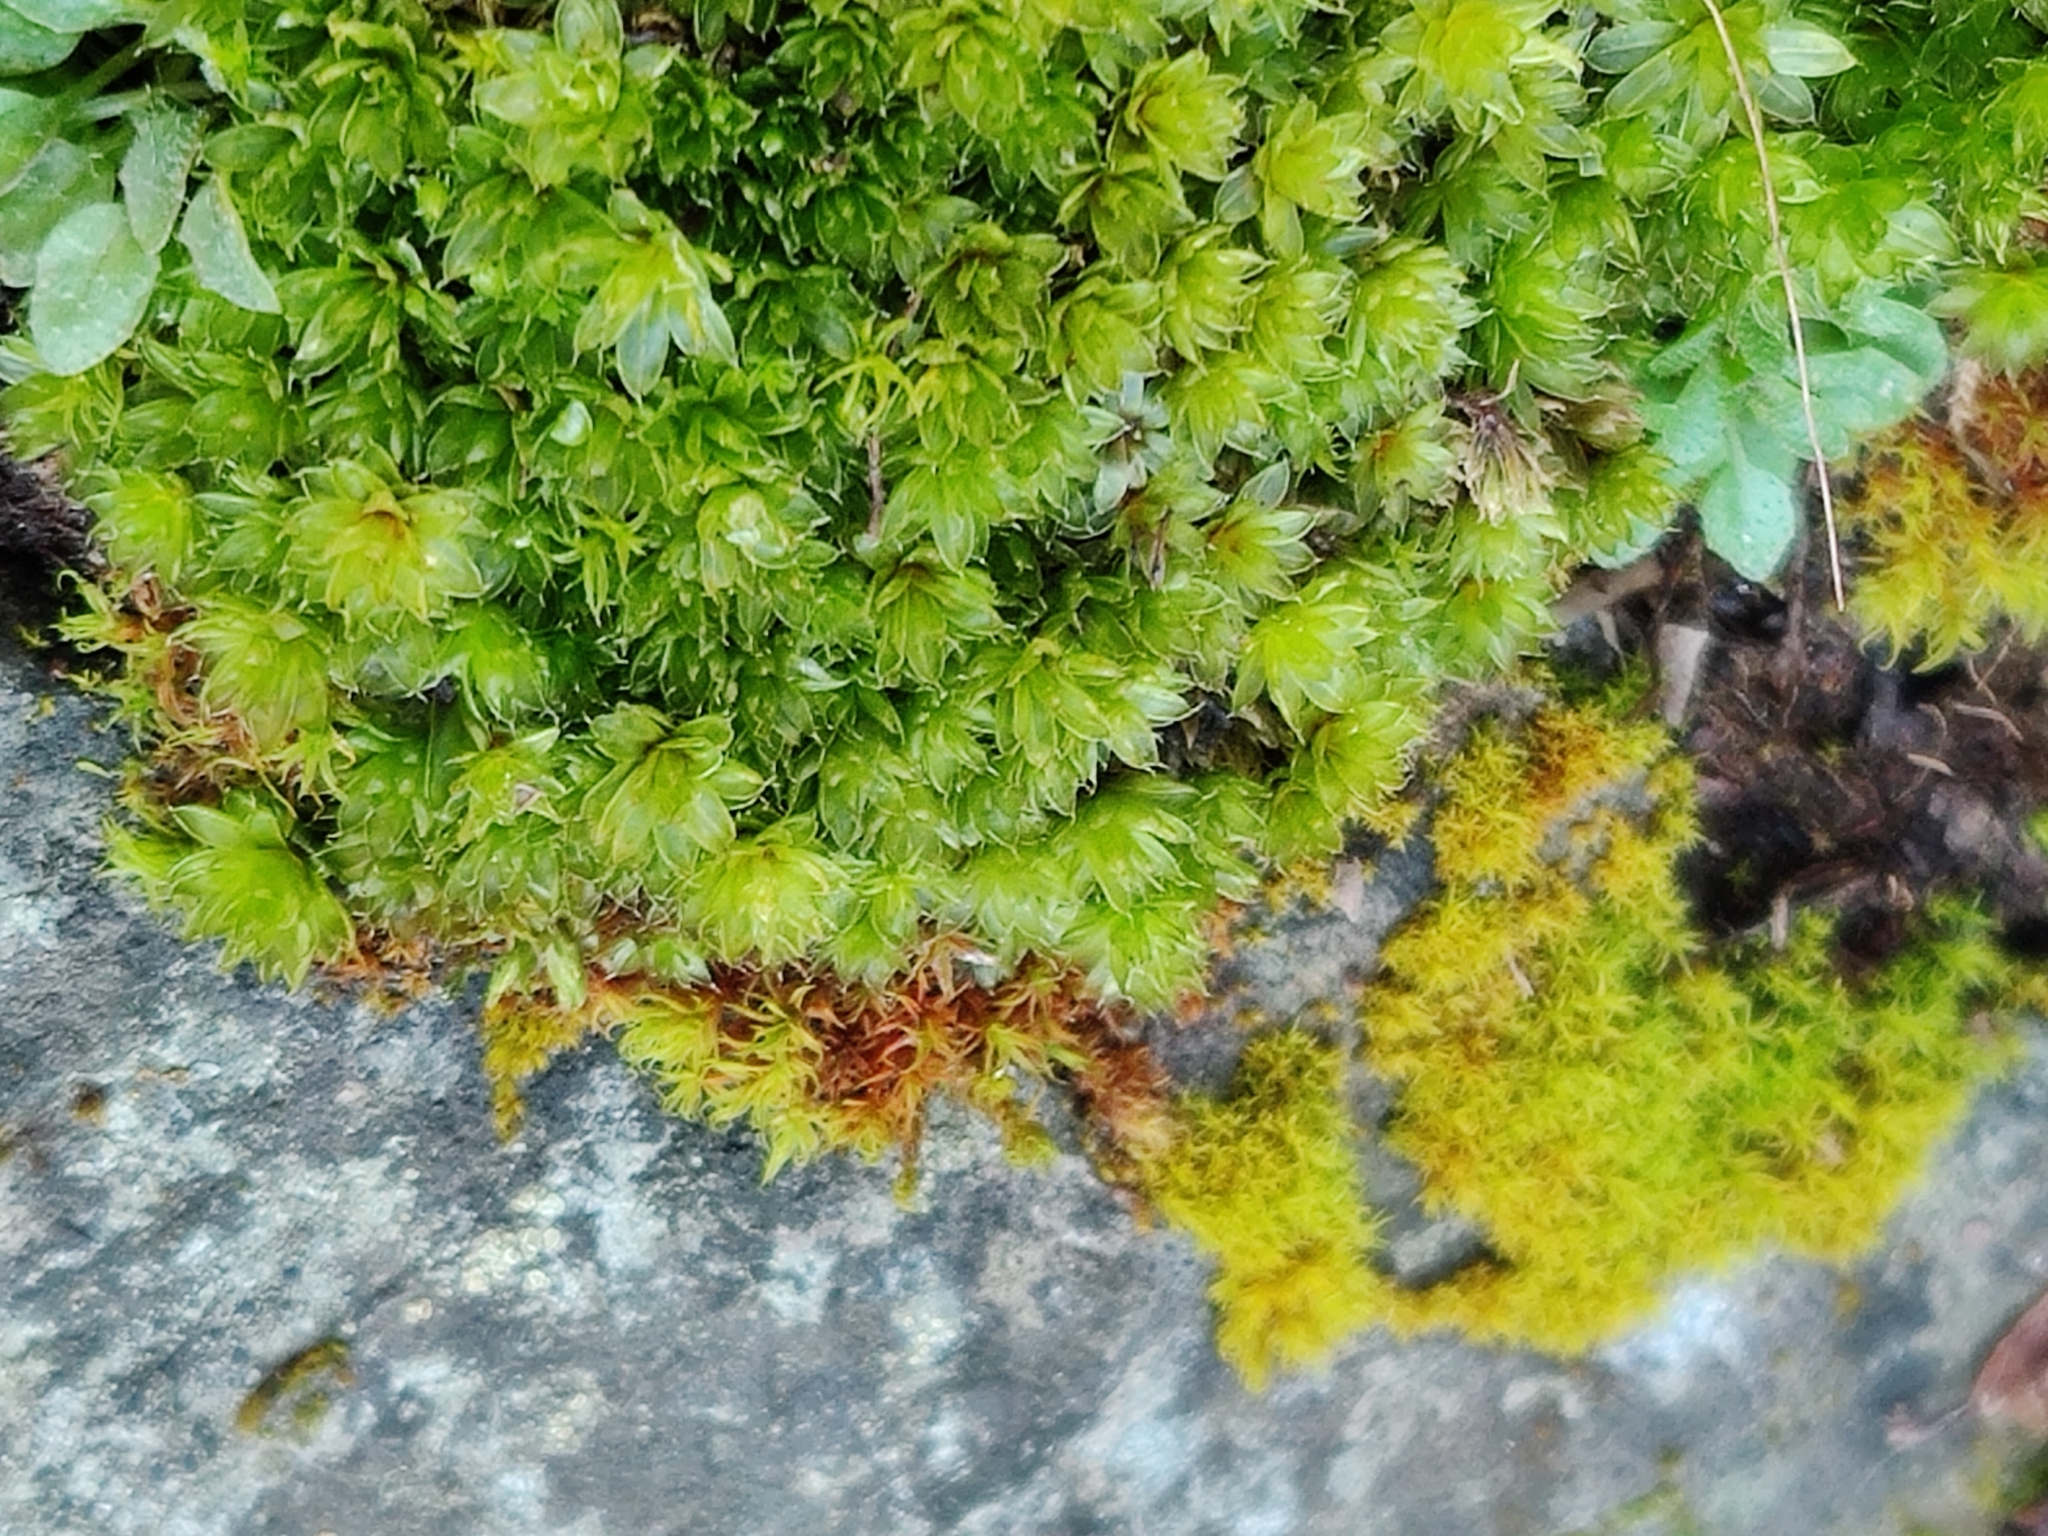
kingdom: Plantae
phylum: Bryophyta
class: Bryopsida
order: Bryales
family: Bryaceae
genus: Rosulabryum
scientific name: Rosulabryum capillare
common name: Capillary thread-moss
